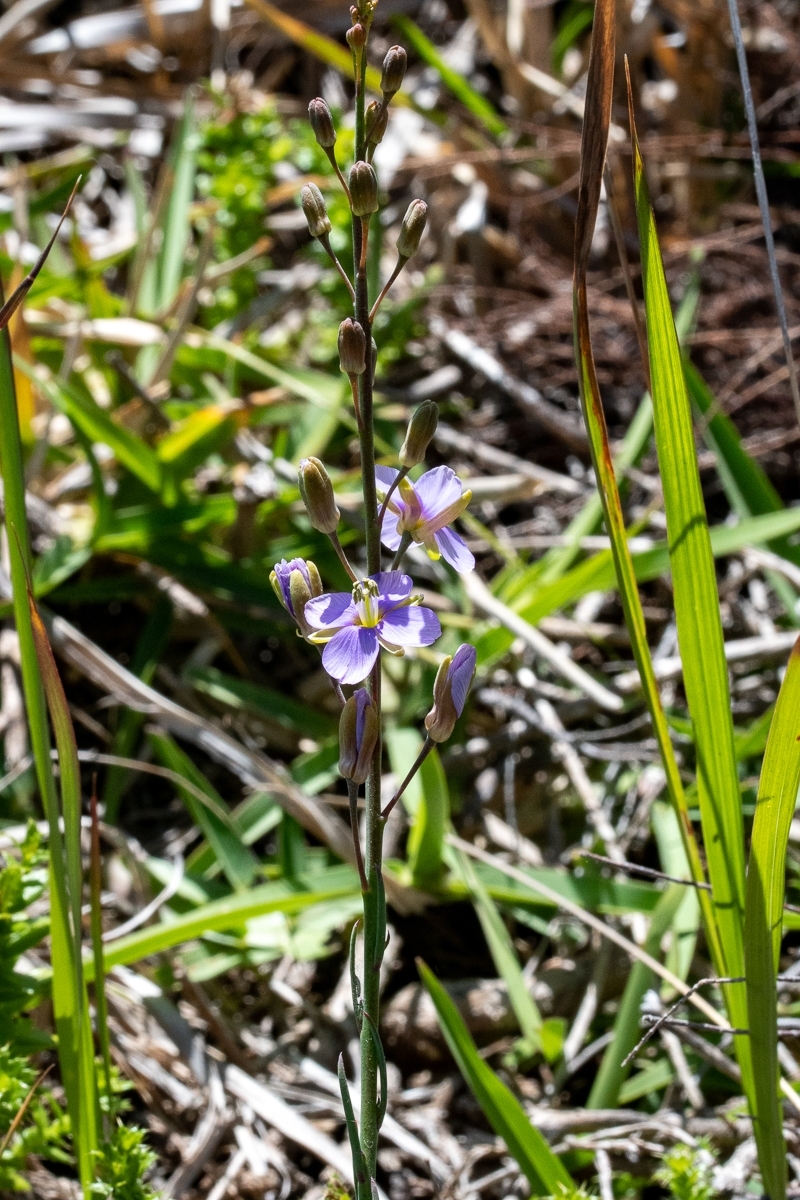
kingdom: Plantae
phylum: Tracheophyta
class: Magnoliopsida
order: Brassicales
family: Brassicaceae
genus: Heliophila
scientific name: Heliophila linearis
